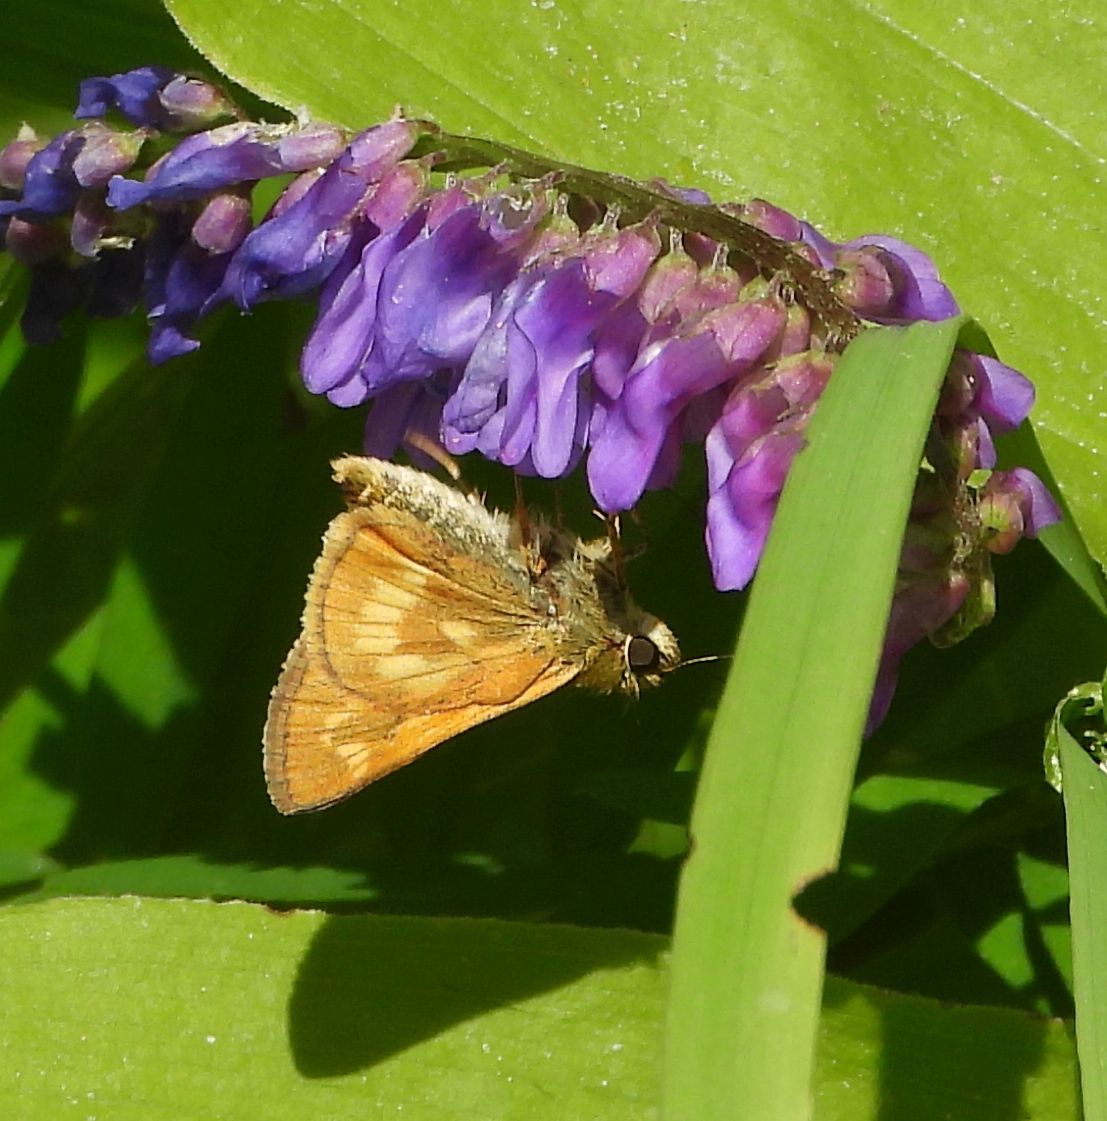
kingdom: Animalia
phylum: Arthropoda
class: Insecta
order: Lepidoptera
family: Hesperiidae
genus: Polites
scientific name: Polites mystic
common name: Long dash
